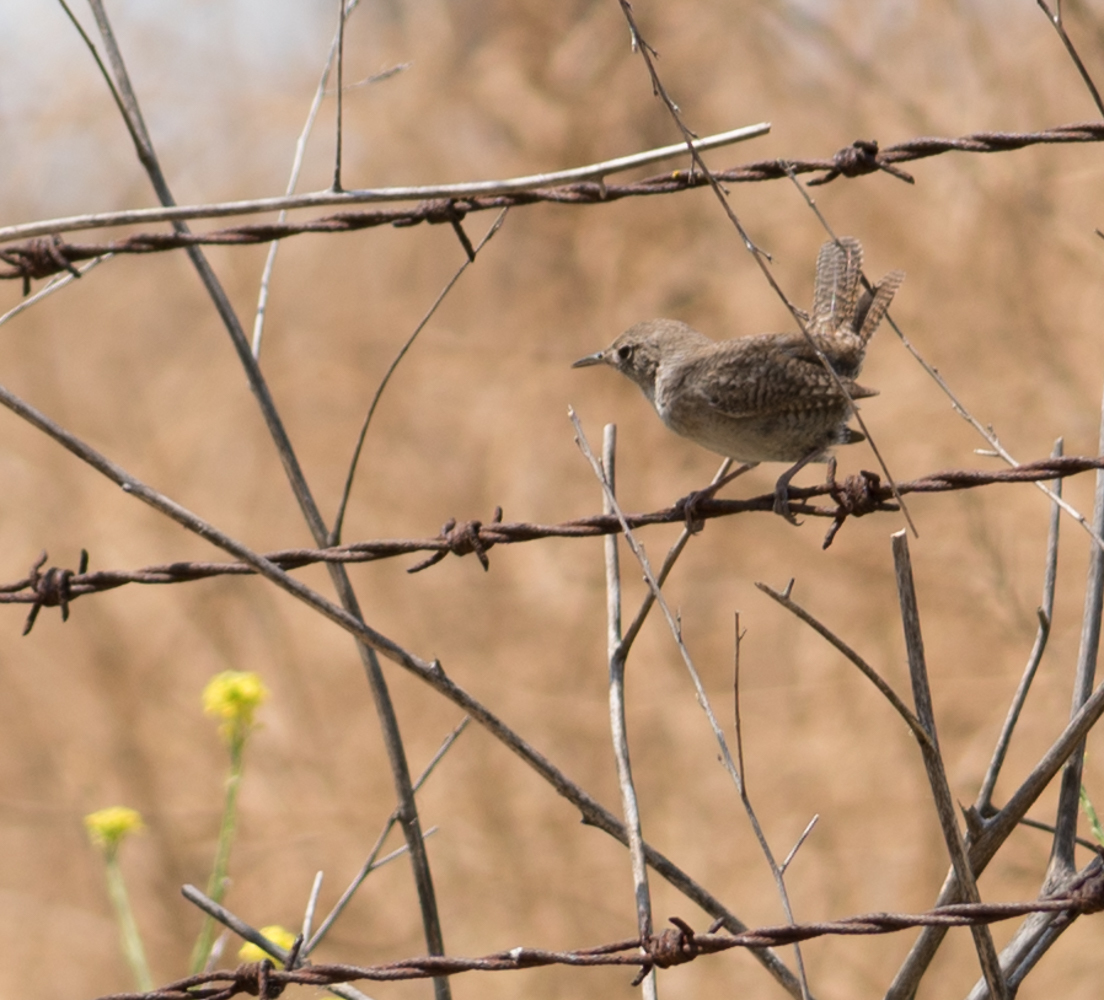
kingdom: Animalia
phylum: Chordata
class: Aves
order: Passeriformes
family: Troglodytidae
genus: Troglodytes
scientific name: Troglodytes aedon
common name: House wren
